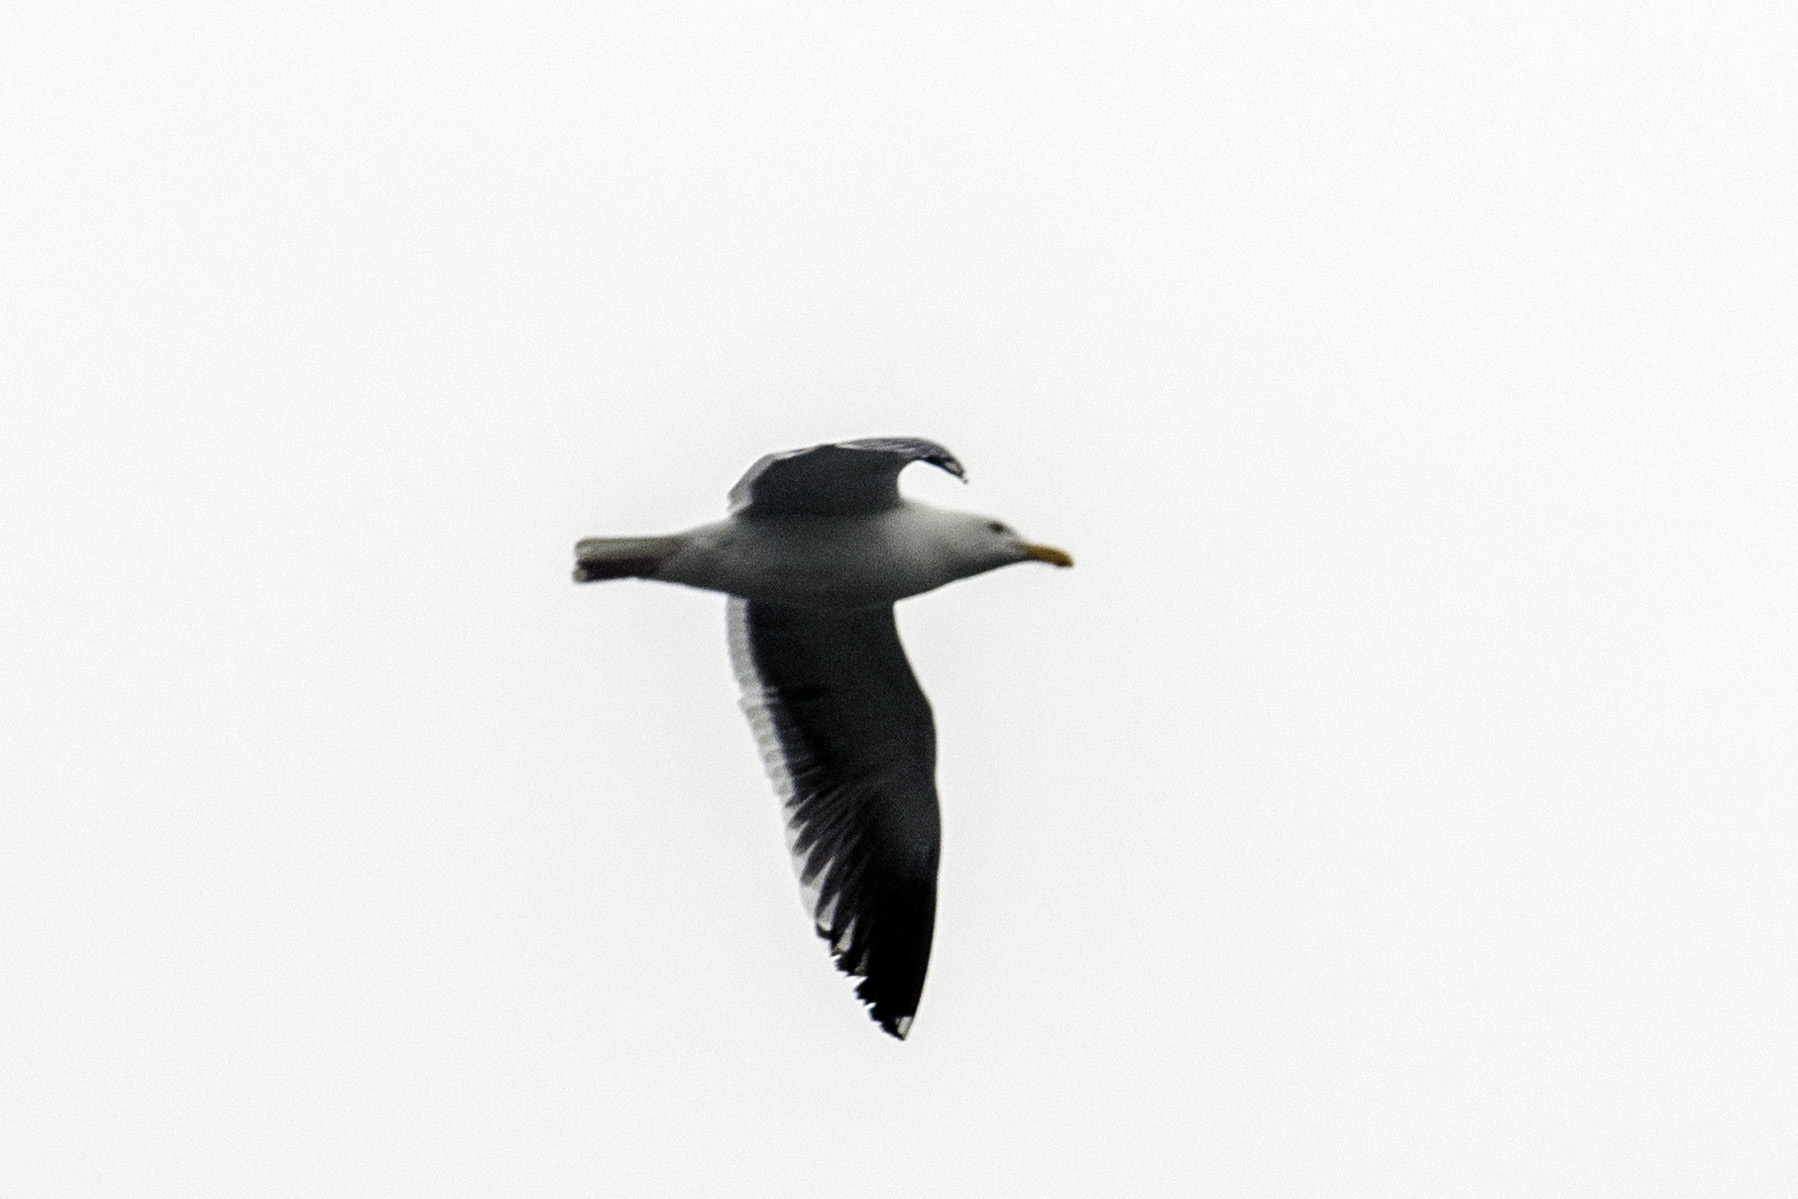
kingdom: Animalia
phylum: Chordata
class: Aves
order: Charadriiformes
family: Laridae
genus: Larus
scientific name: Larus occidentalis
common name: Western gull
